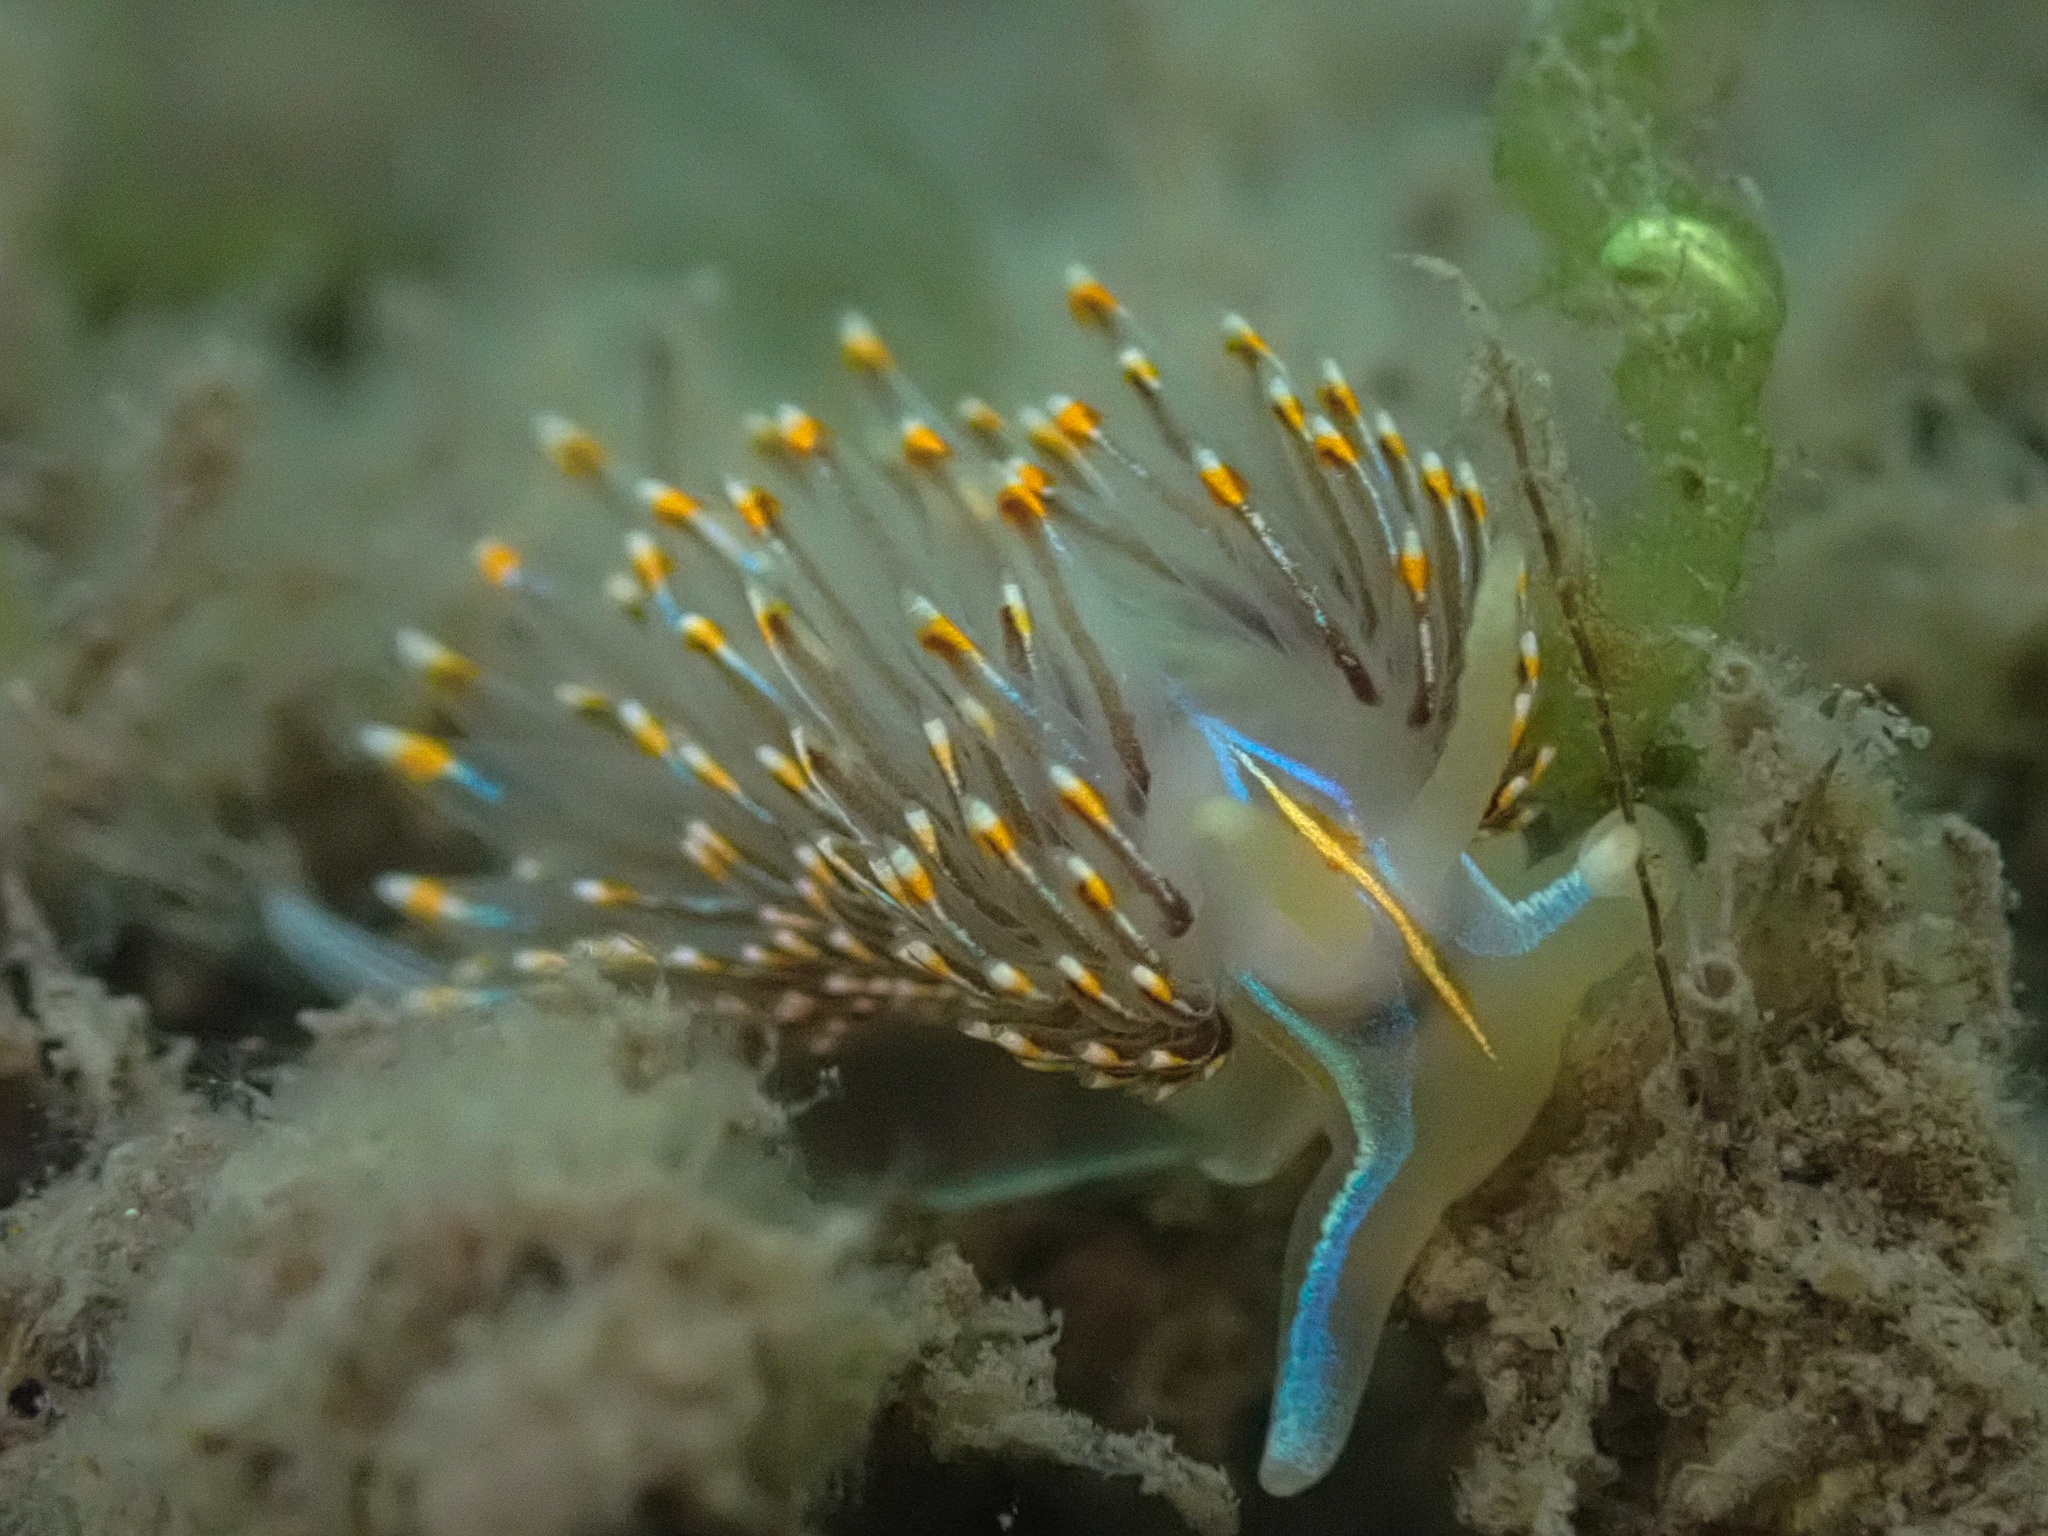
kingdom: Animalia
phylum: Mollusca
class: Gastropoda
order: Nudibranchia
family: Myrrhinidae
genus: Hermissenda
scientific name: Hermissenda crassicornis
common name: Hermissenda
